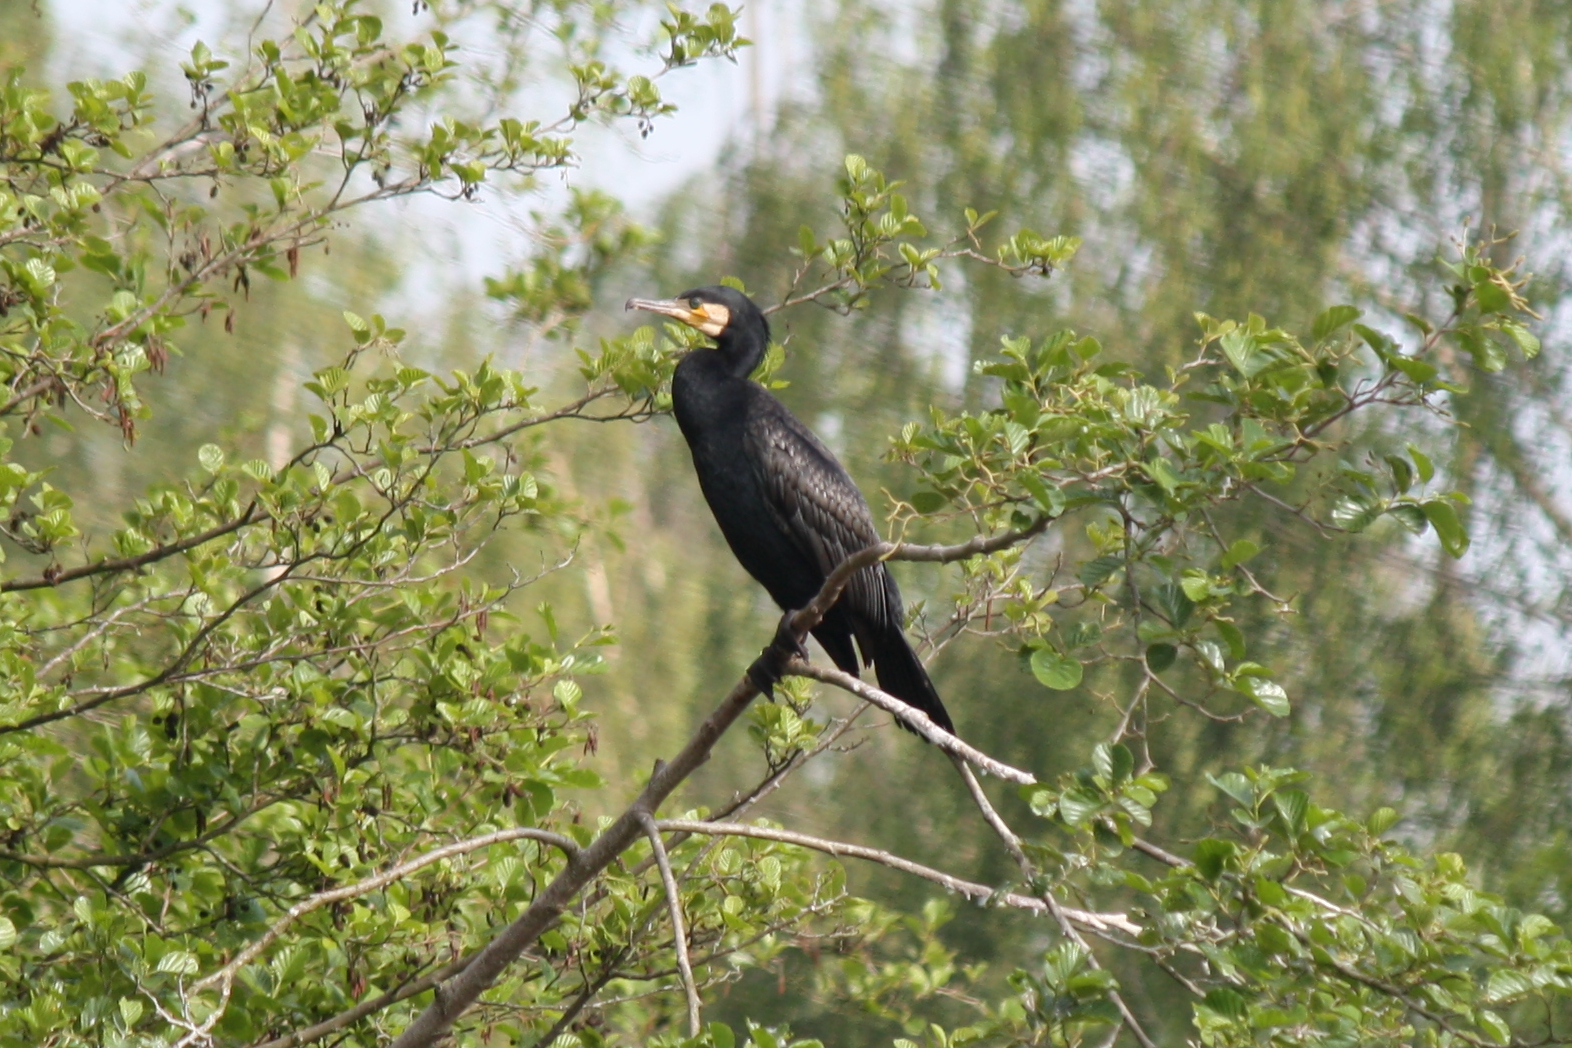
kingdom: Animalia
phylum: Chordata
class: Aves
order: Suliformes
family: Phalacrocoracidae
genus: Phalacrocorax
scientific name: Phalacrocorax carbo
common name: Great cormorant
